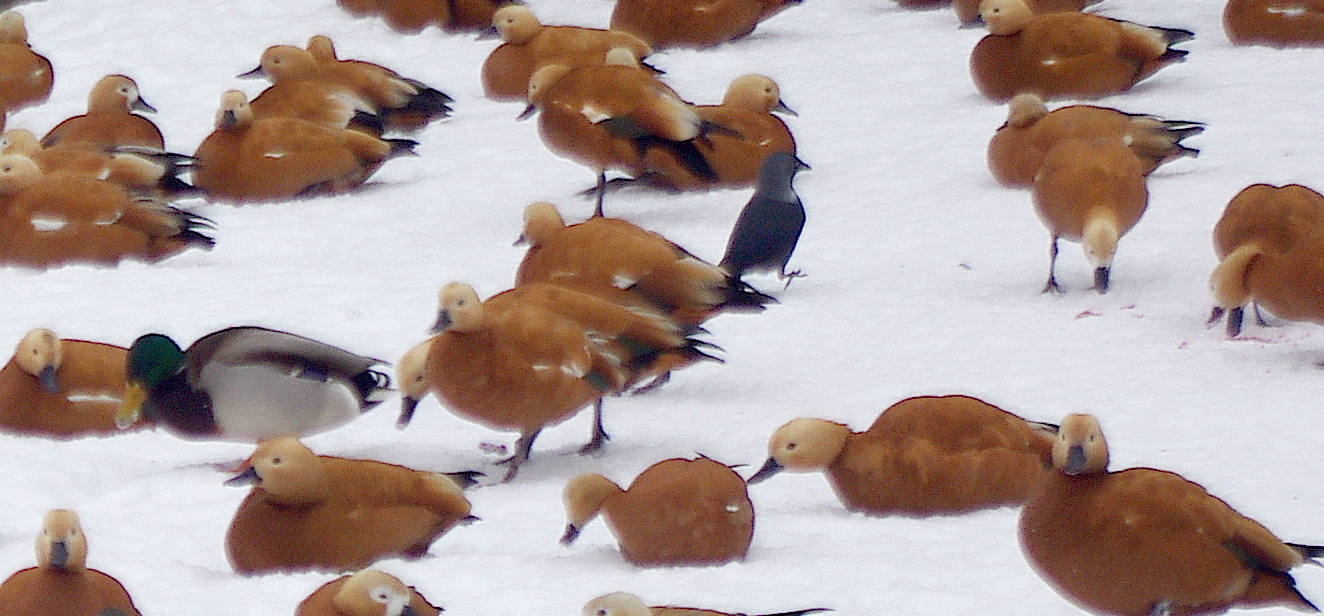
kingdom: Animalia
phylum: Chordata
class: Aves
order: Anseriformes
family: Anatidae
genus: Tadorna
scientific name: Tadorna ferruginea
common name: Ruddy shelduck
